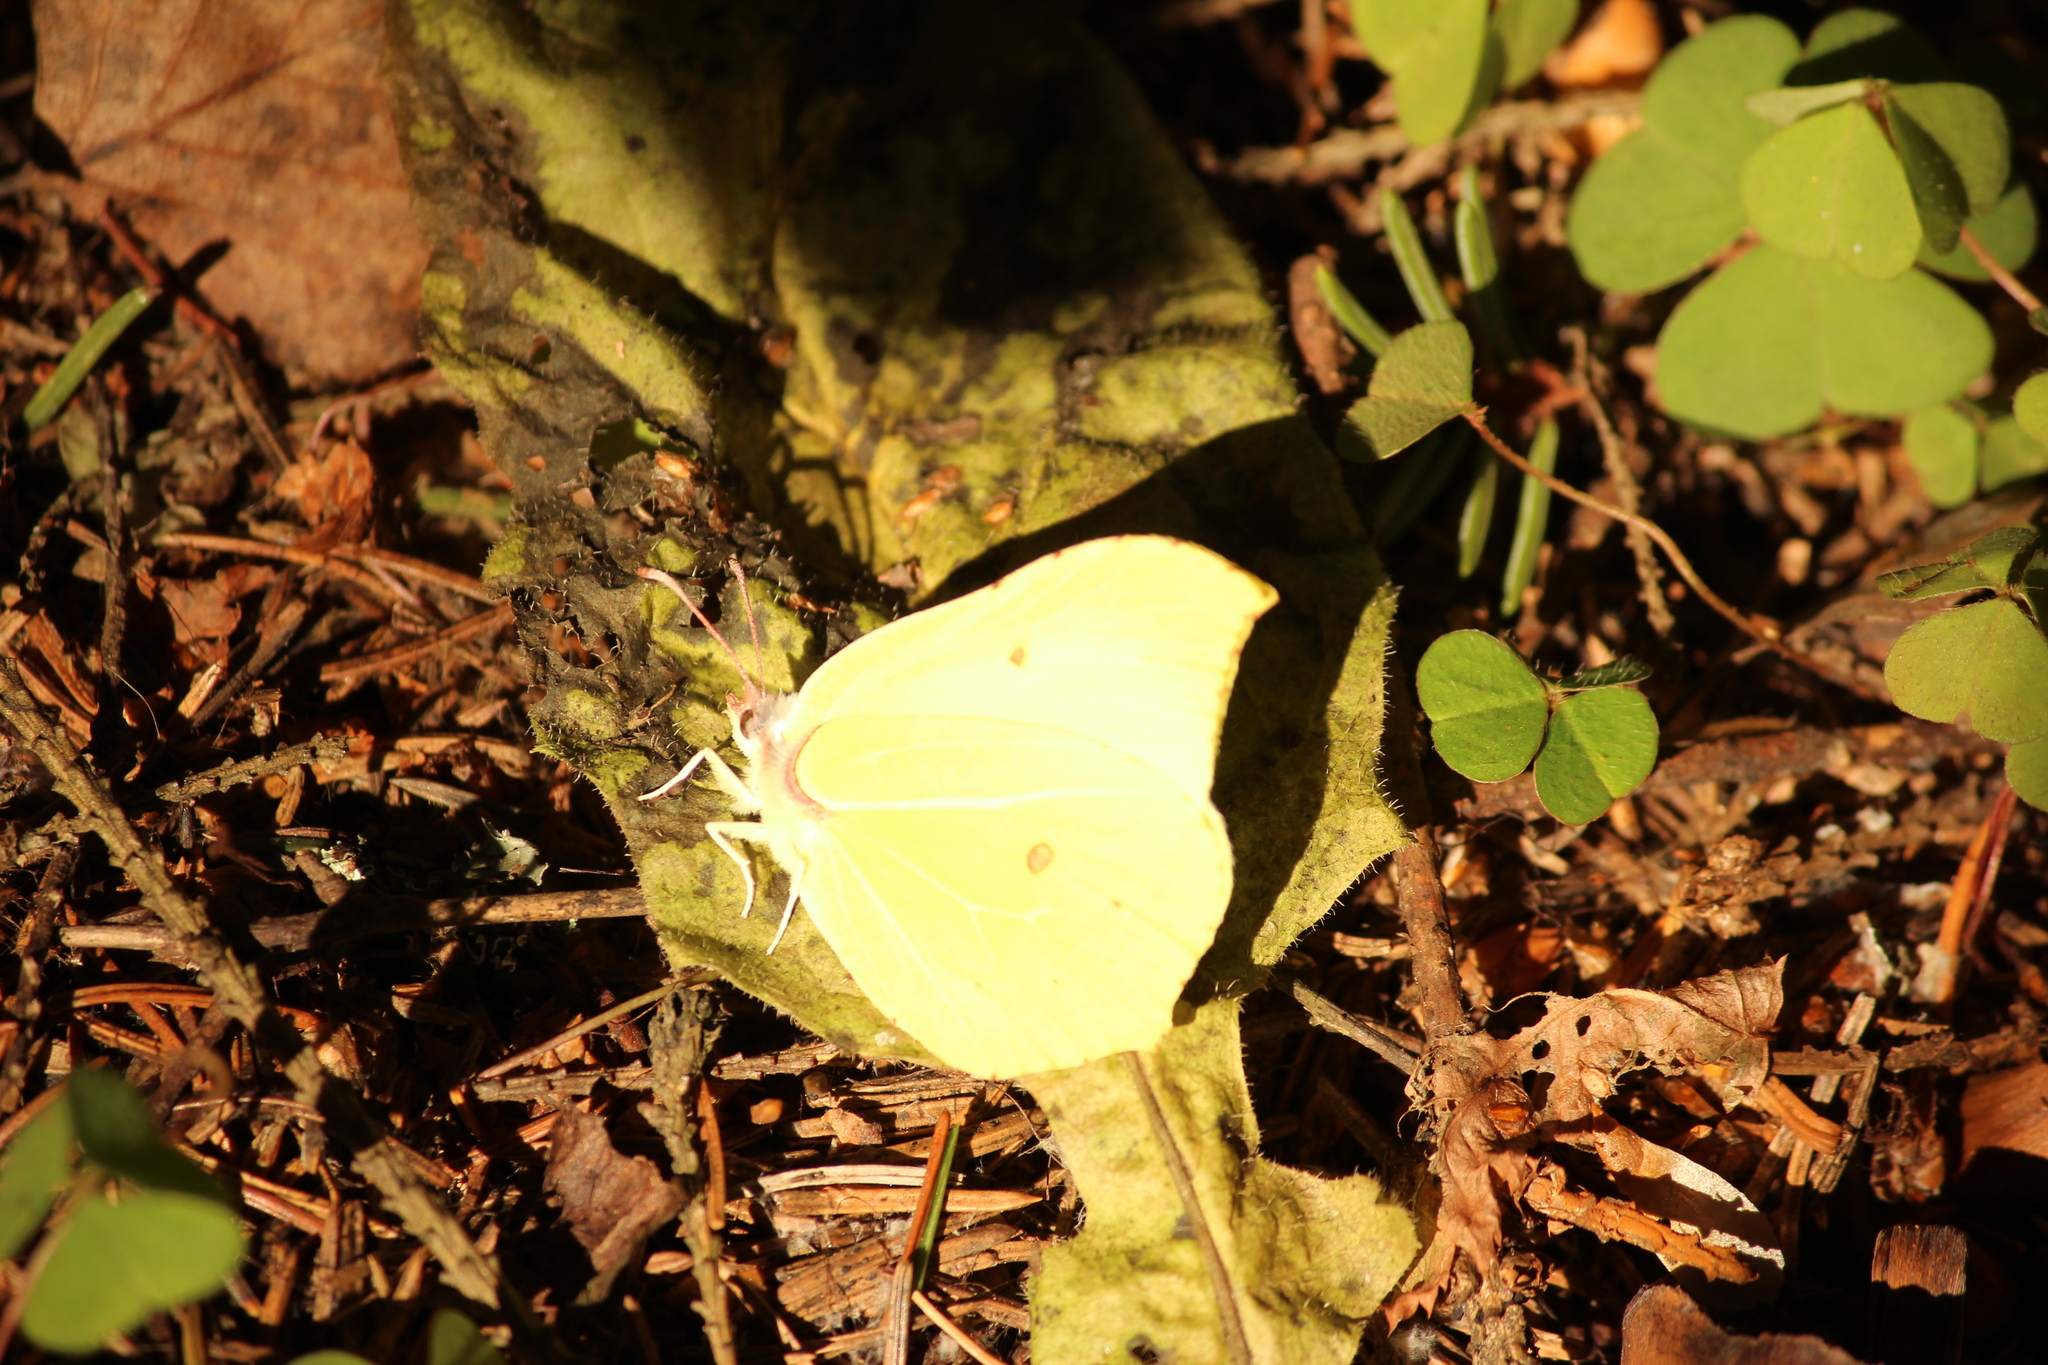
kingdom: Animalia
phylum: Arthropoda
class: Insecta
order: Lepidoptera
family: Pieridae
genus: Gonepteryx
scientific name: Gonepteryx rhamni
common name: Brimstone
